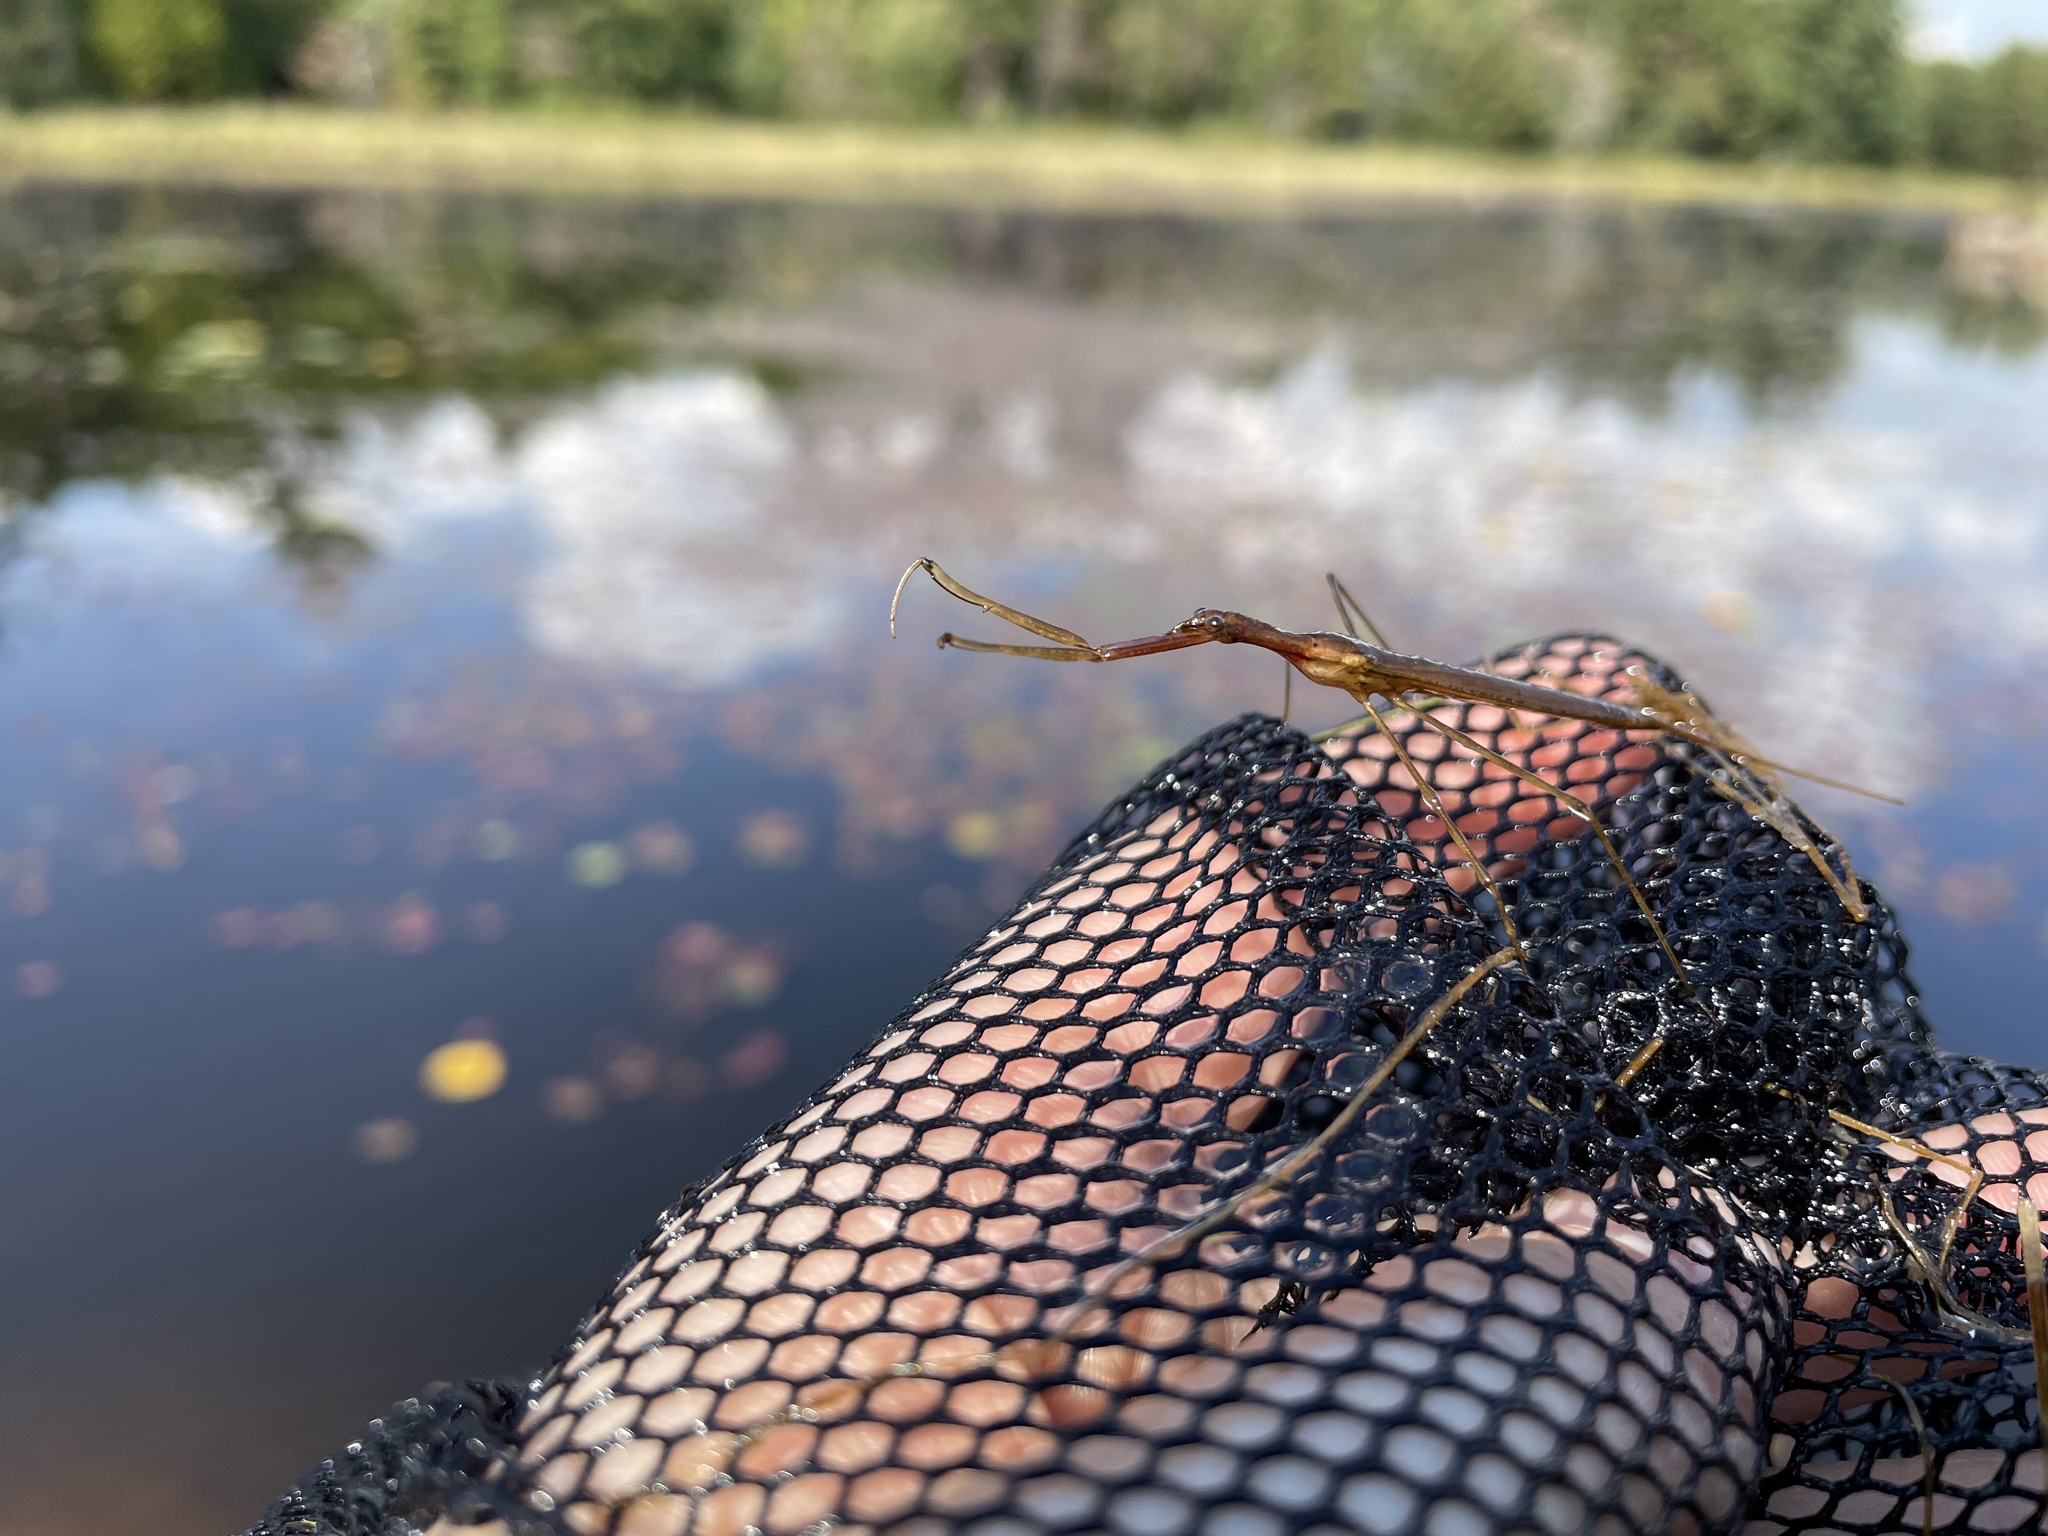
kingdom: Animalia
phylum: Arthropoda
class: Insecta
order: Hemiptera
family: Nepidae
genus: Ranatra
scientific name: Ranatra fusca
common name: Brown waterscorpion
